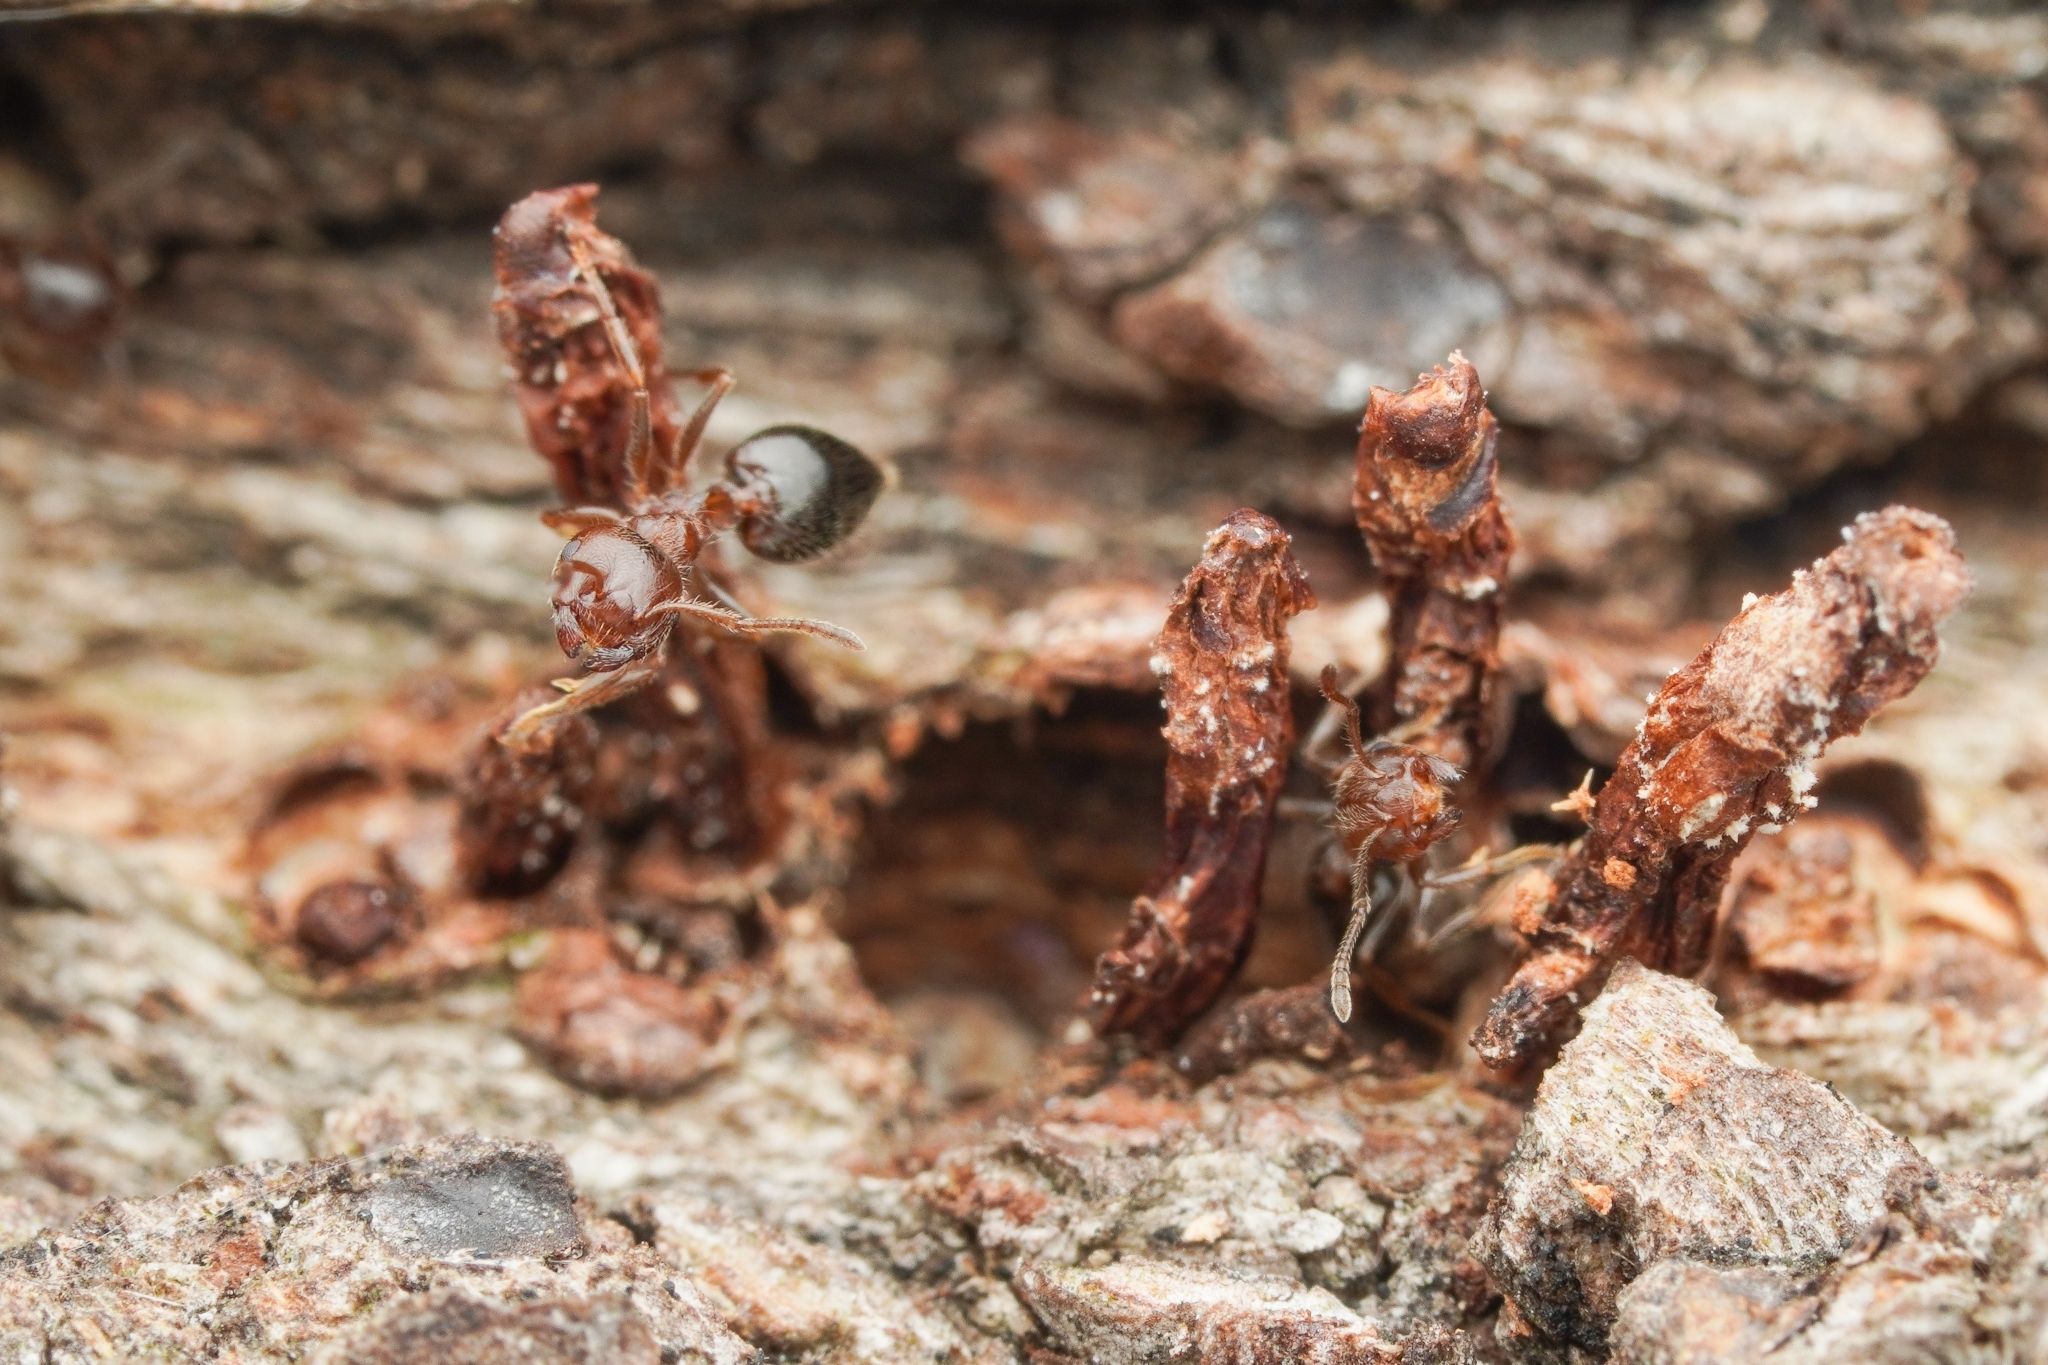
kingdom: Animalia
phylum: Arthropoda
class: Insecta
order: Hymenoptera
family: Formicidae
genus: Crematogaster
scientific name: Crematogaster matsumurai
